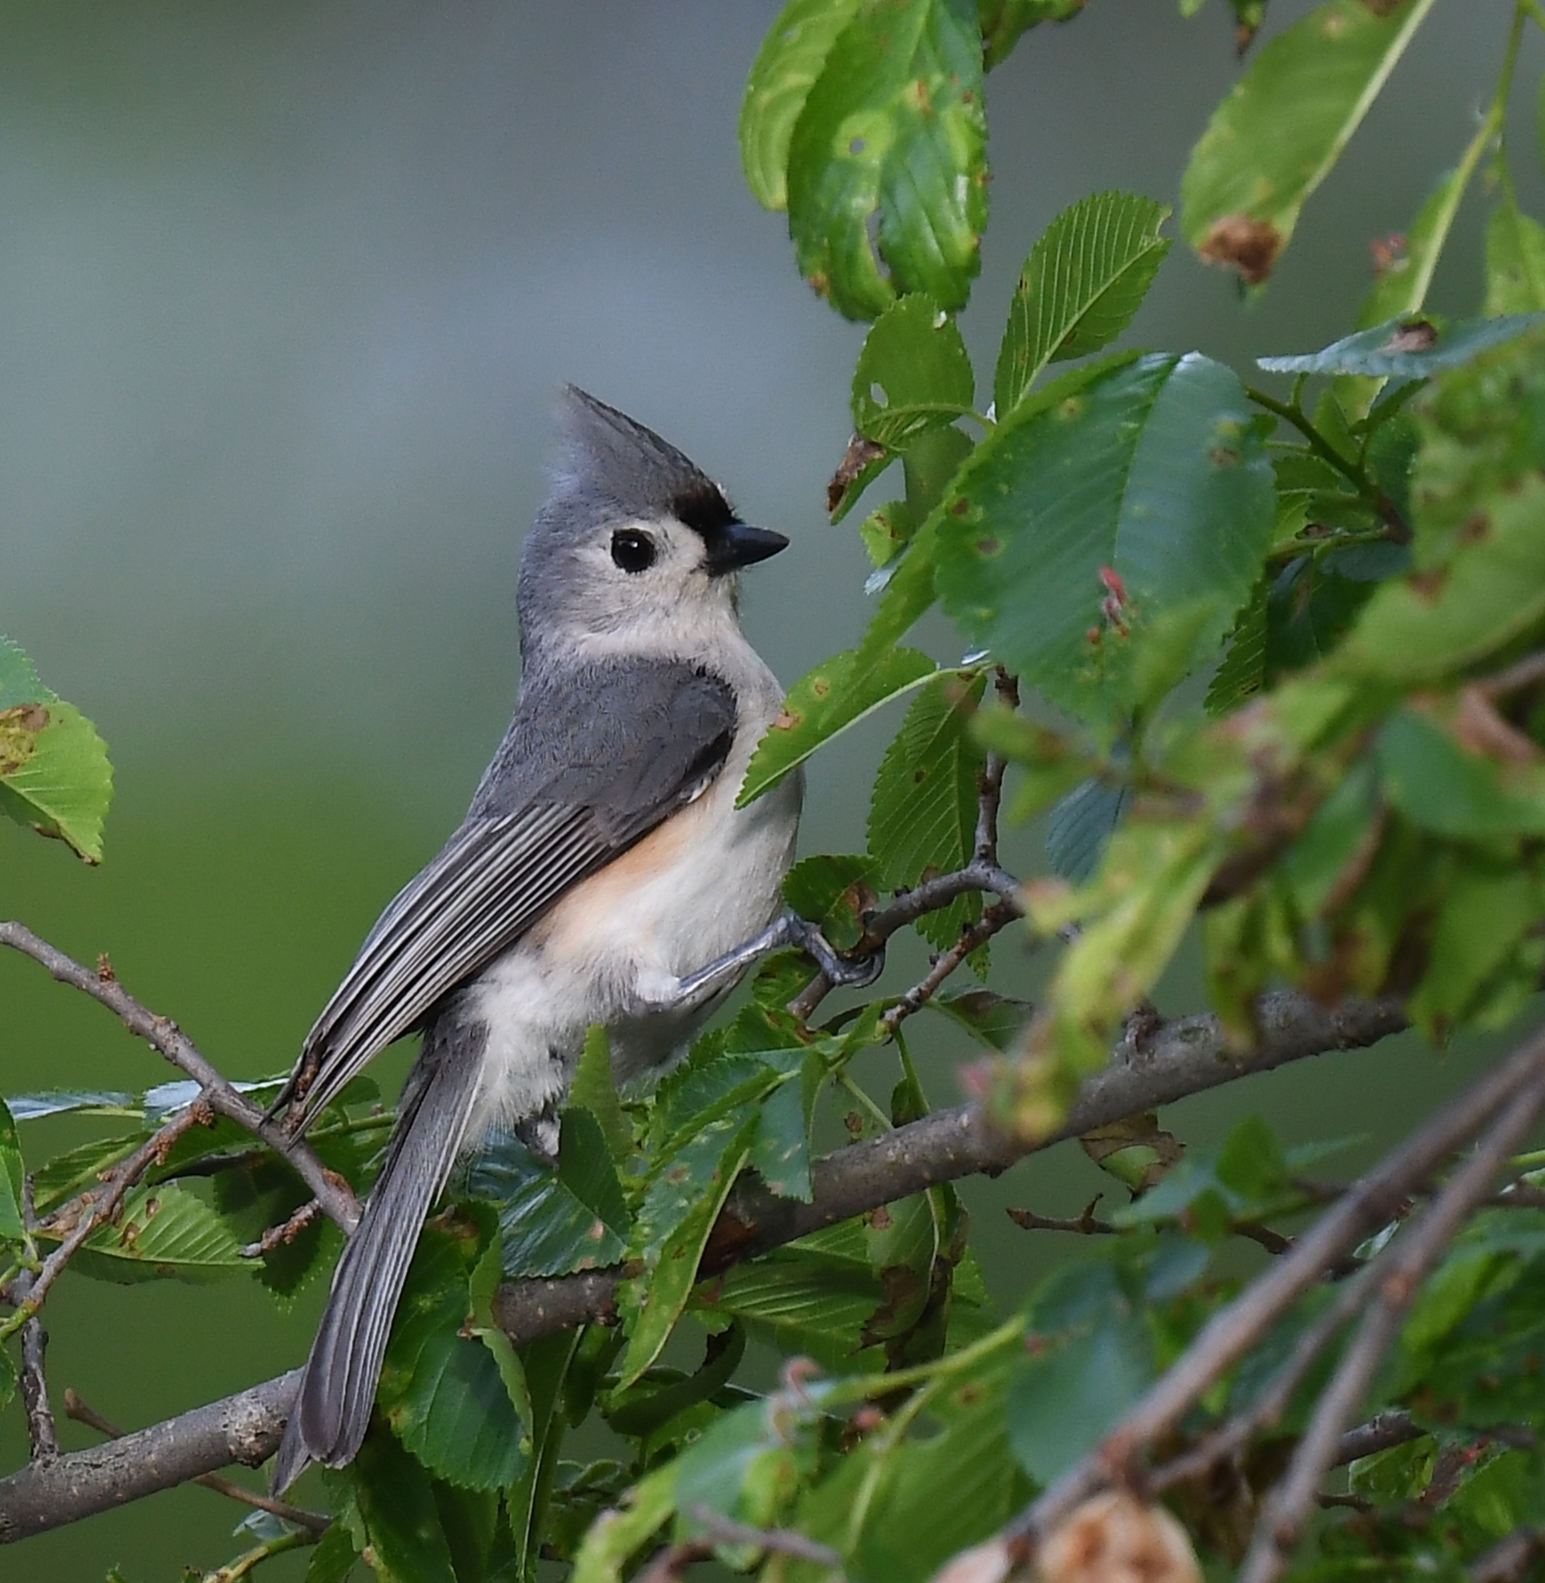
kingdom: Animalia
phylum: Chordata
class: Aves
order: Passeriformes
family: Paridae
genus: Baeolophus
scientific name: Baeolophus bicolor
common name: Tufted titmouse
